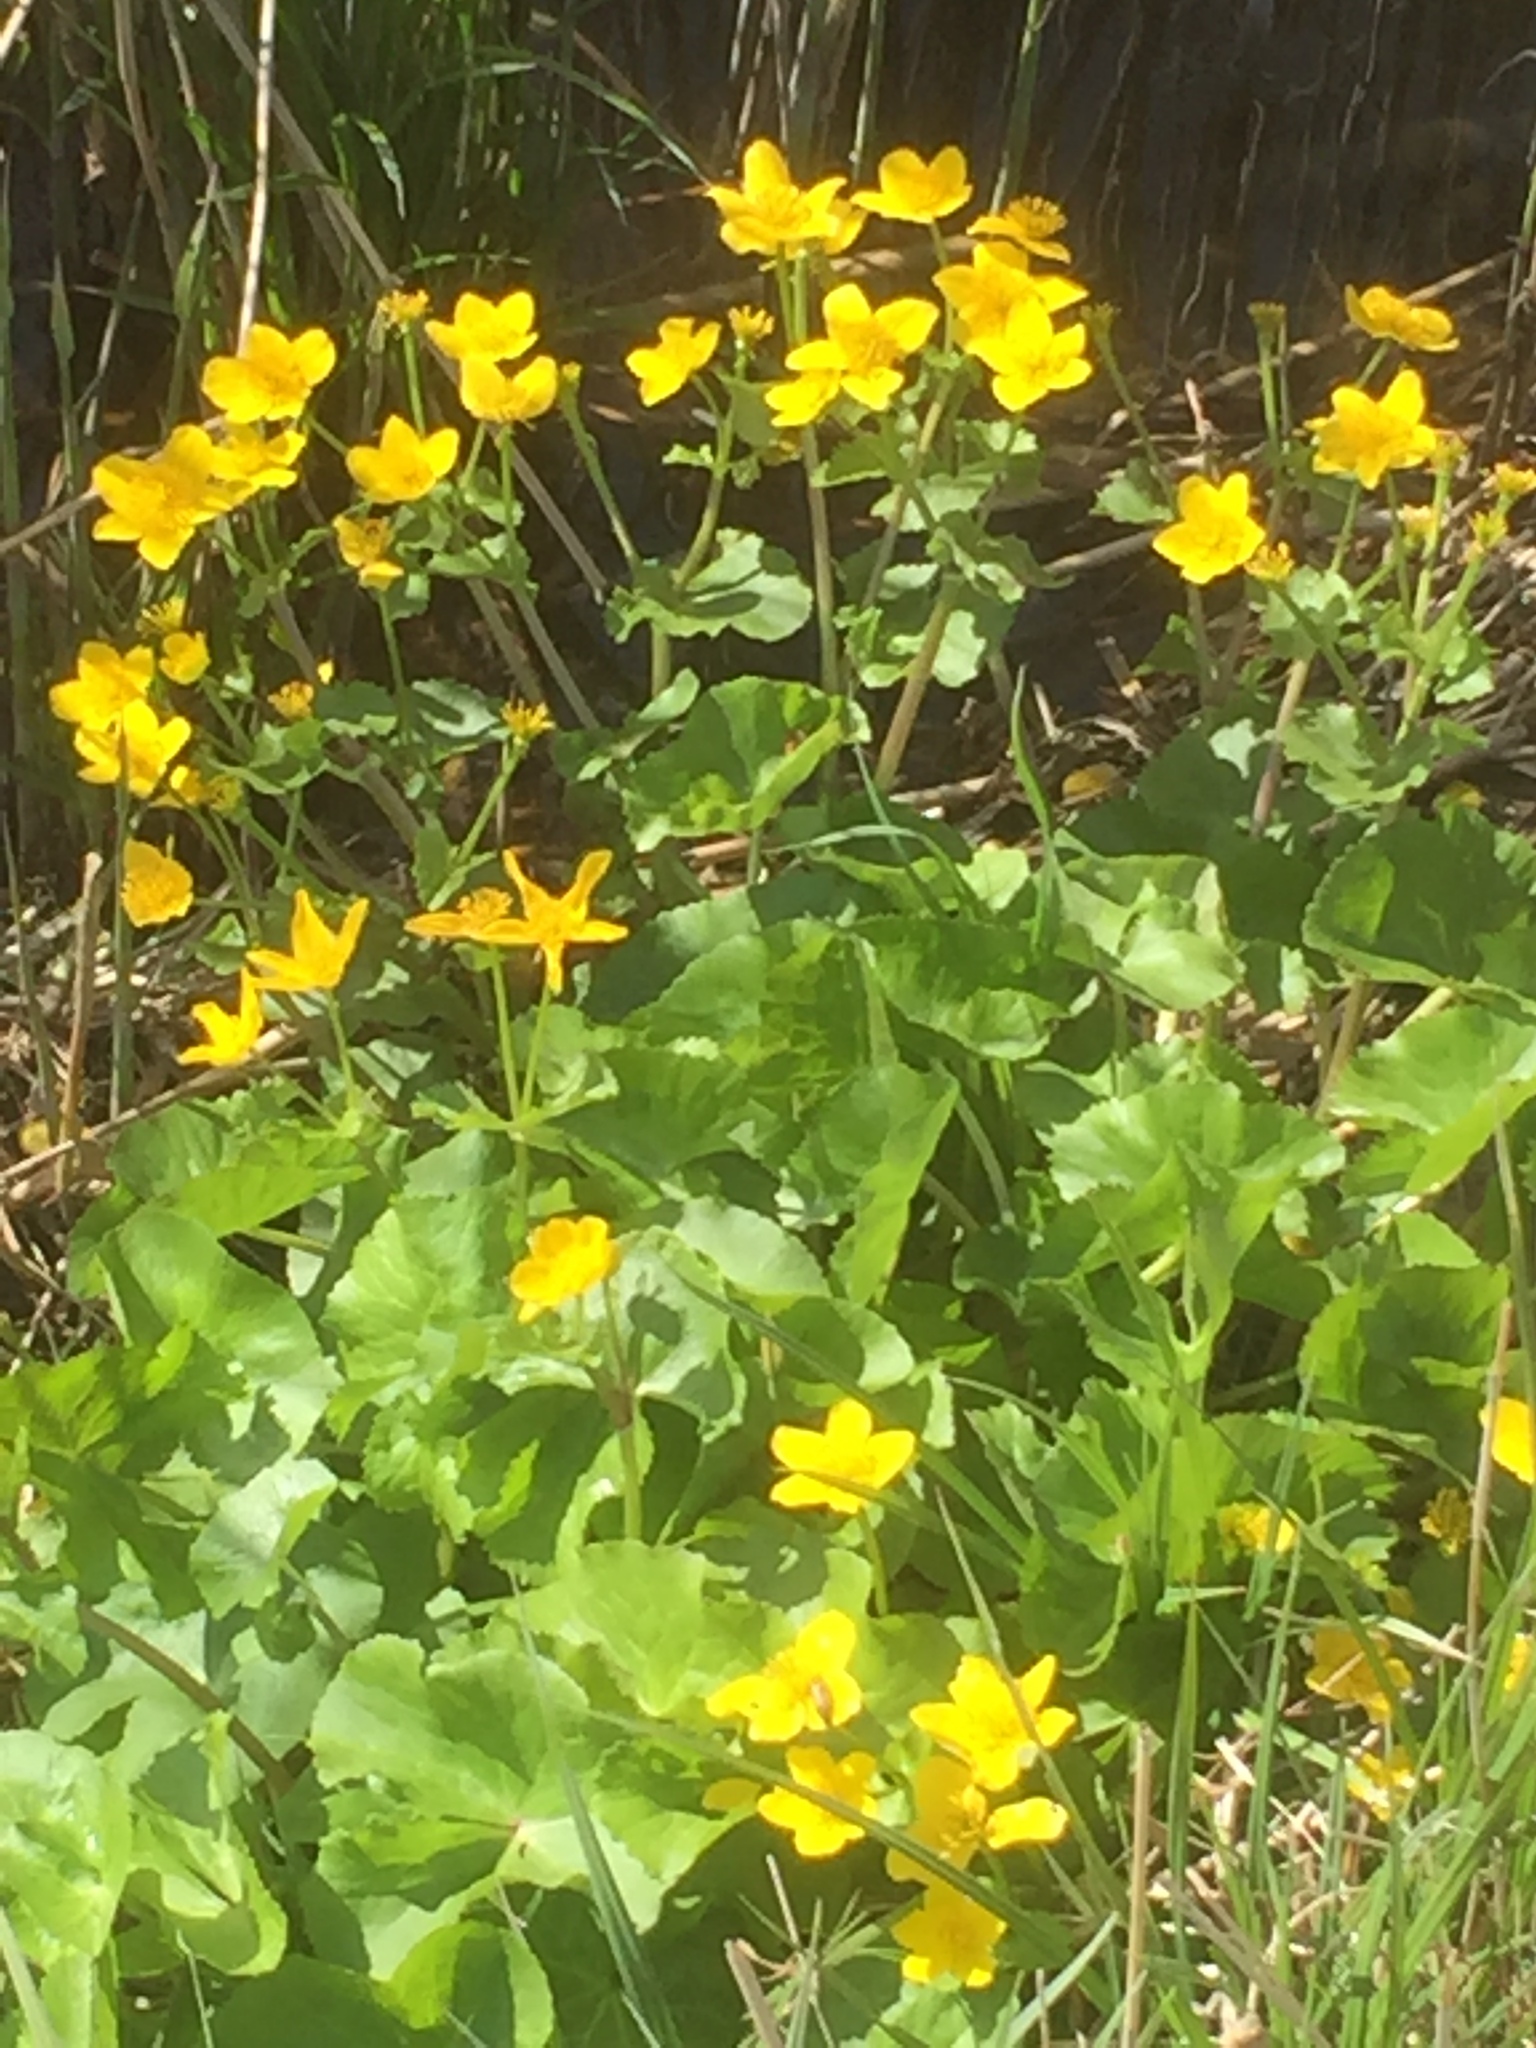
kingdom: Plantae
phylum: Tracheophyta
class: Magnoliopsida
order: Ranunculales
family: Ranunculaceae
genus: Caltha
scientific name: Caltha palustris
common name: Marsh marigold
